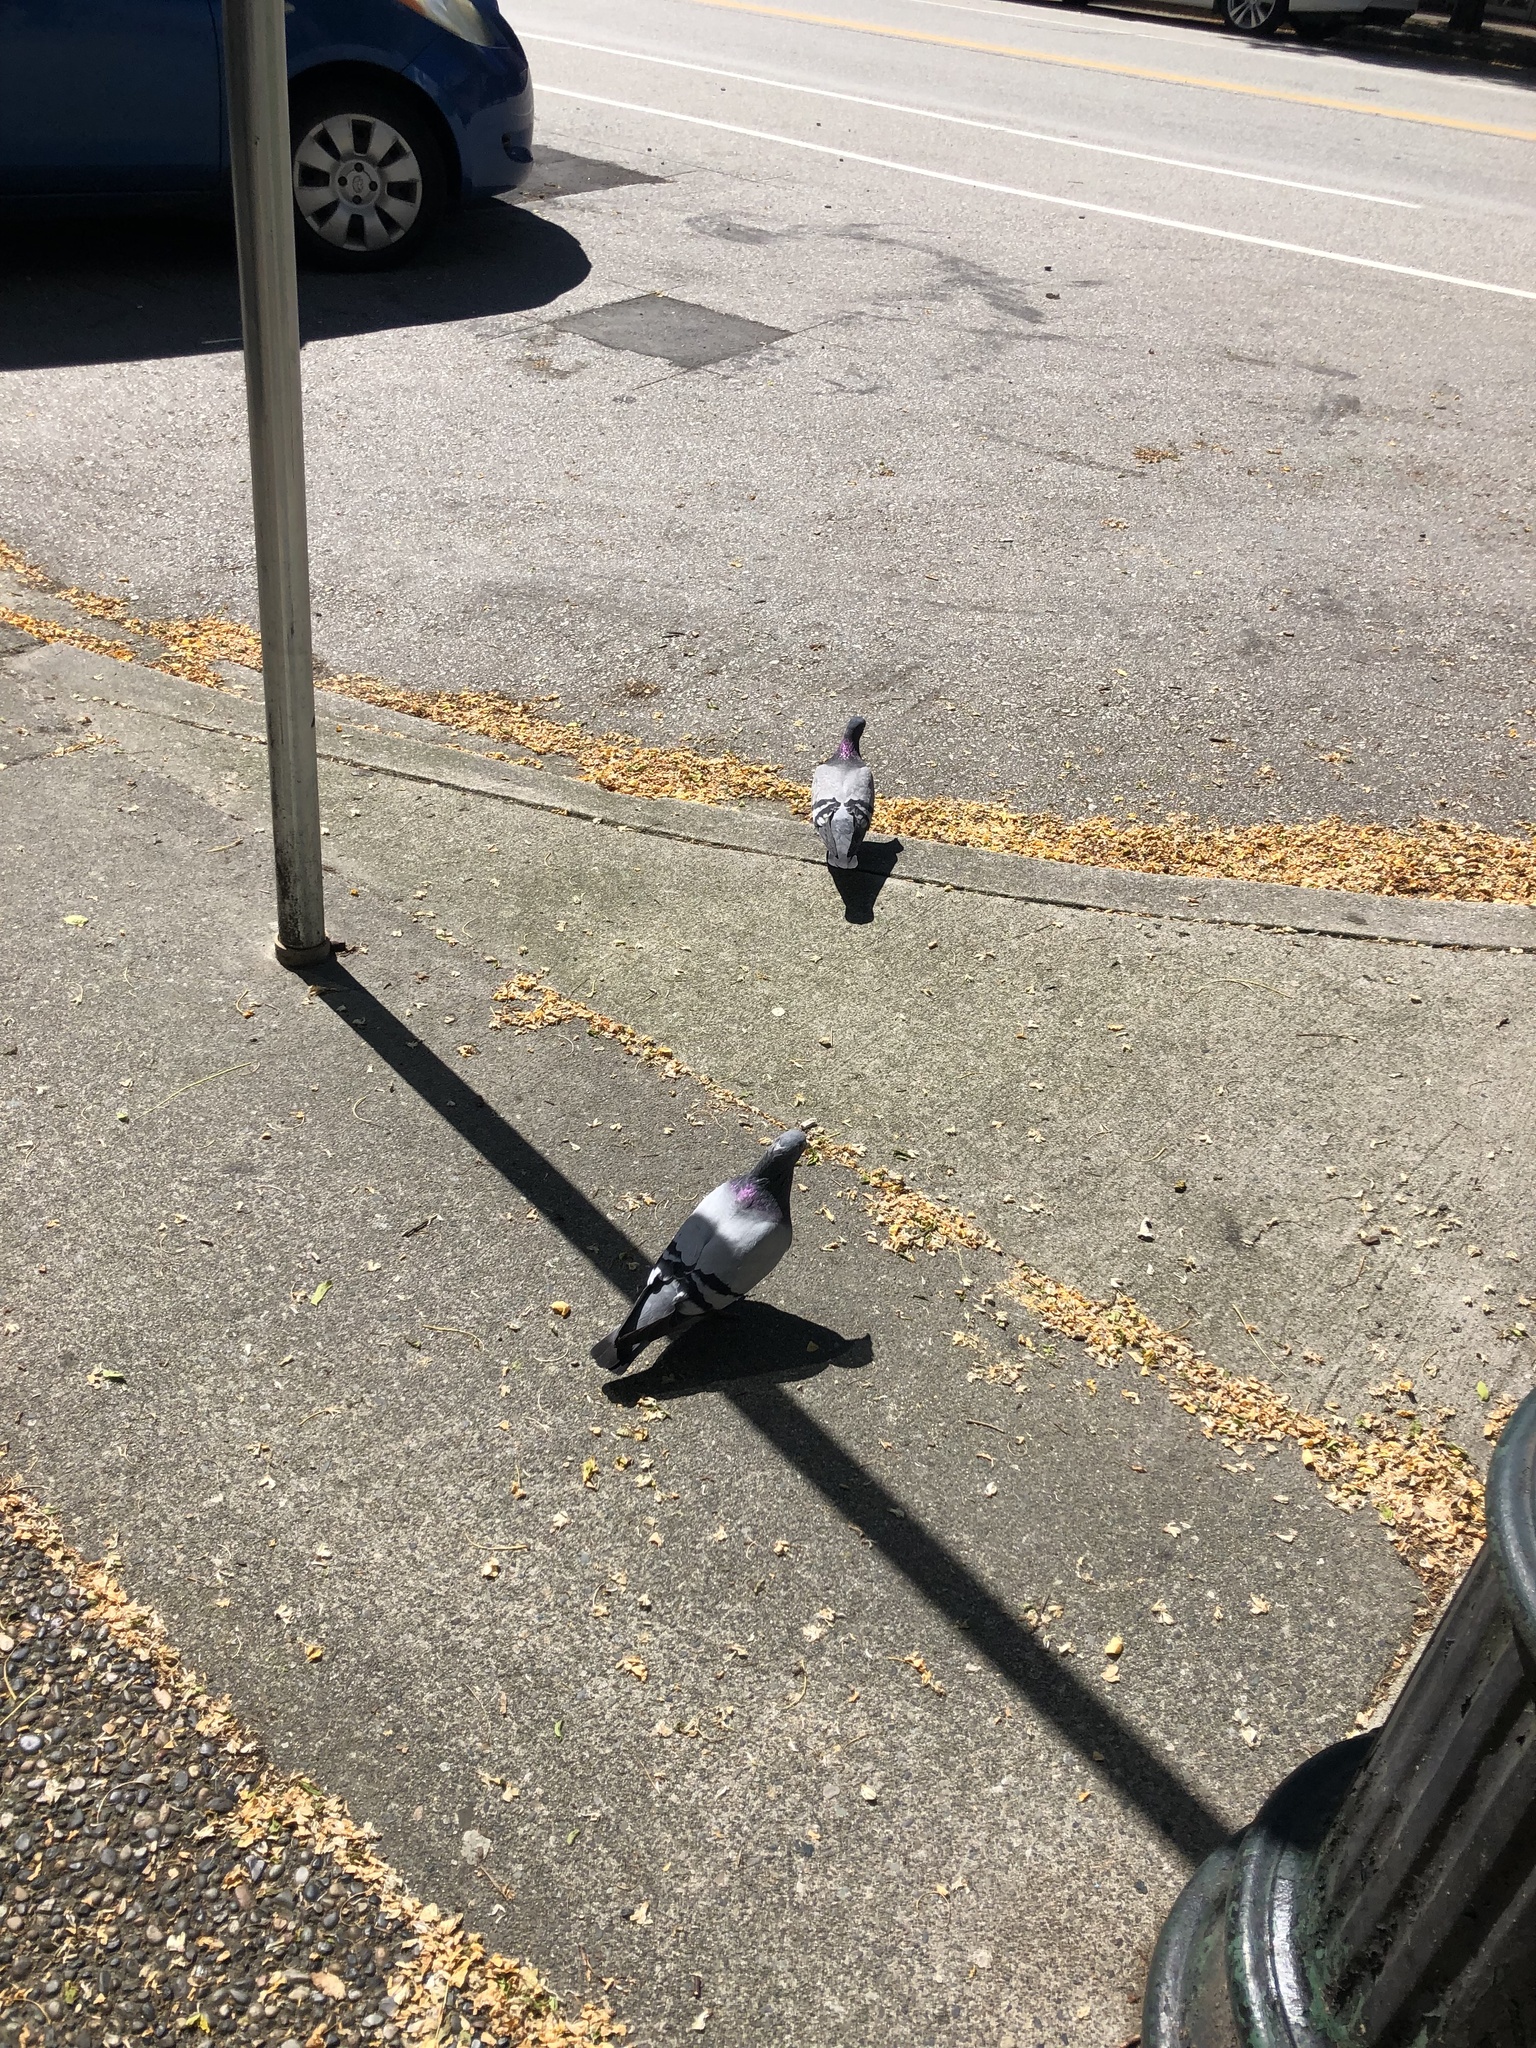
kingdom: Animalia
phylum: Chordata
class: Aves
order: Columbiformes
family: Columbidae
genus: Columba
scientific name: Columba livia
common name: Rock pigeon
